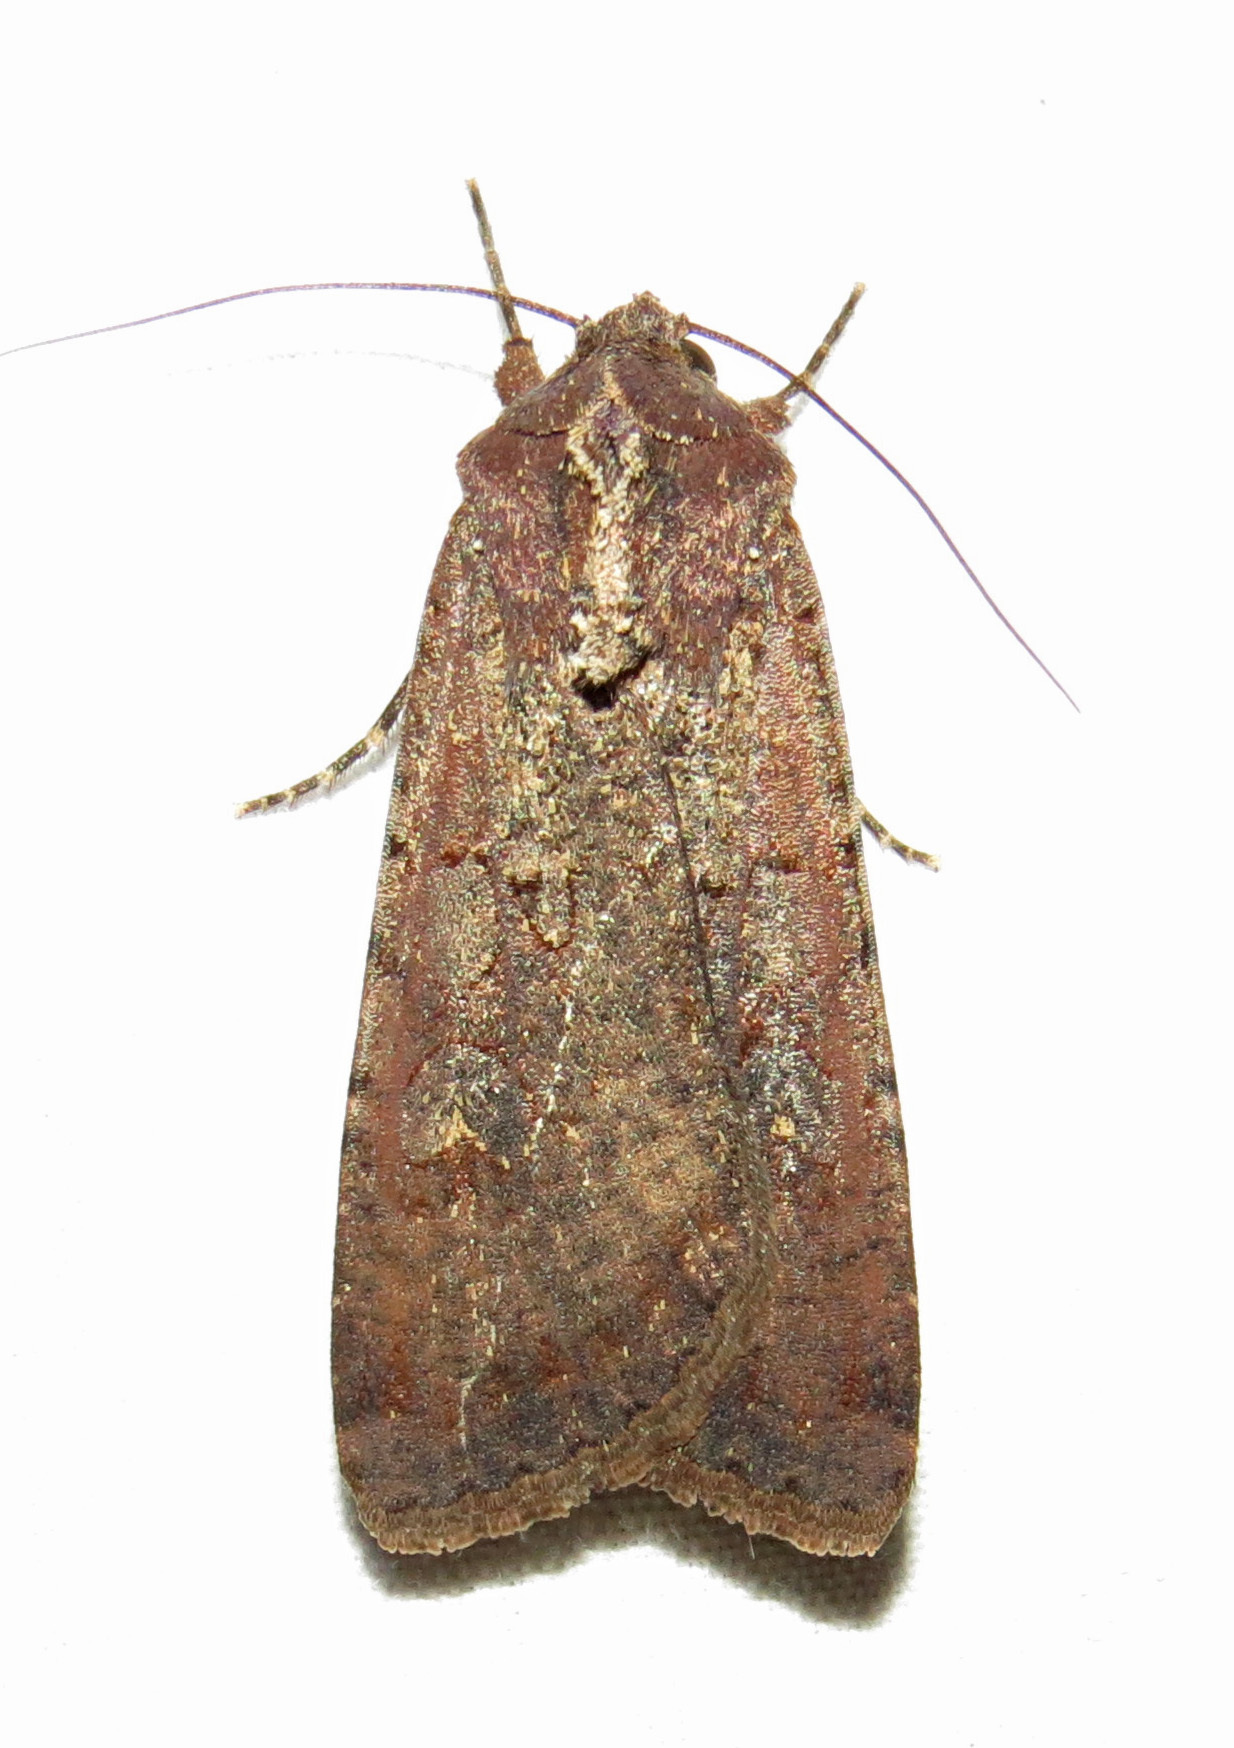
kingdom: Animalia
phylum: Arthropoda
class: Insecta
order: Lepidoptera
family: Noctuidae
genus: Peridroma
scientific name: Peridroma saucia
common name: Pearly underwing
